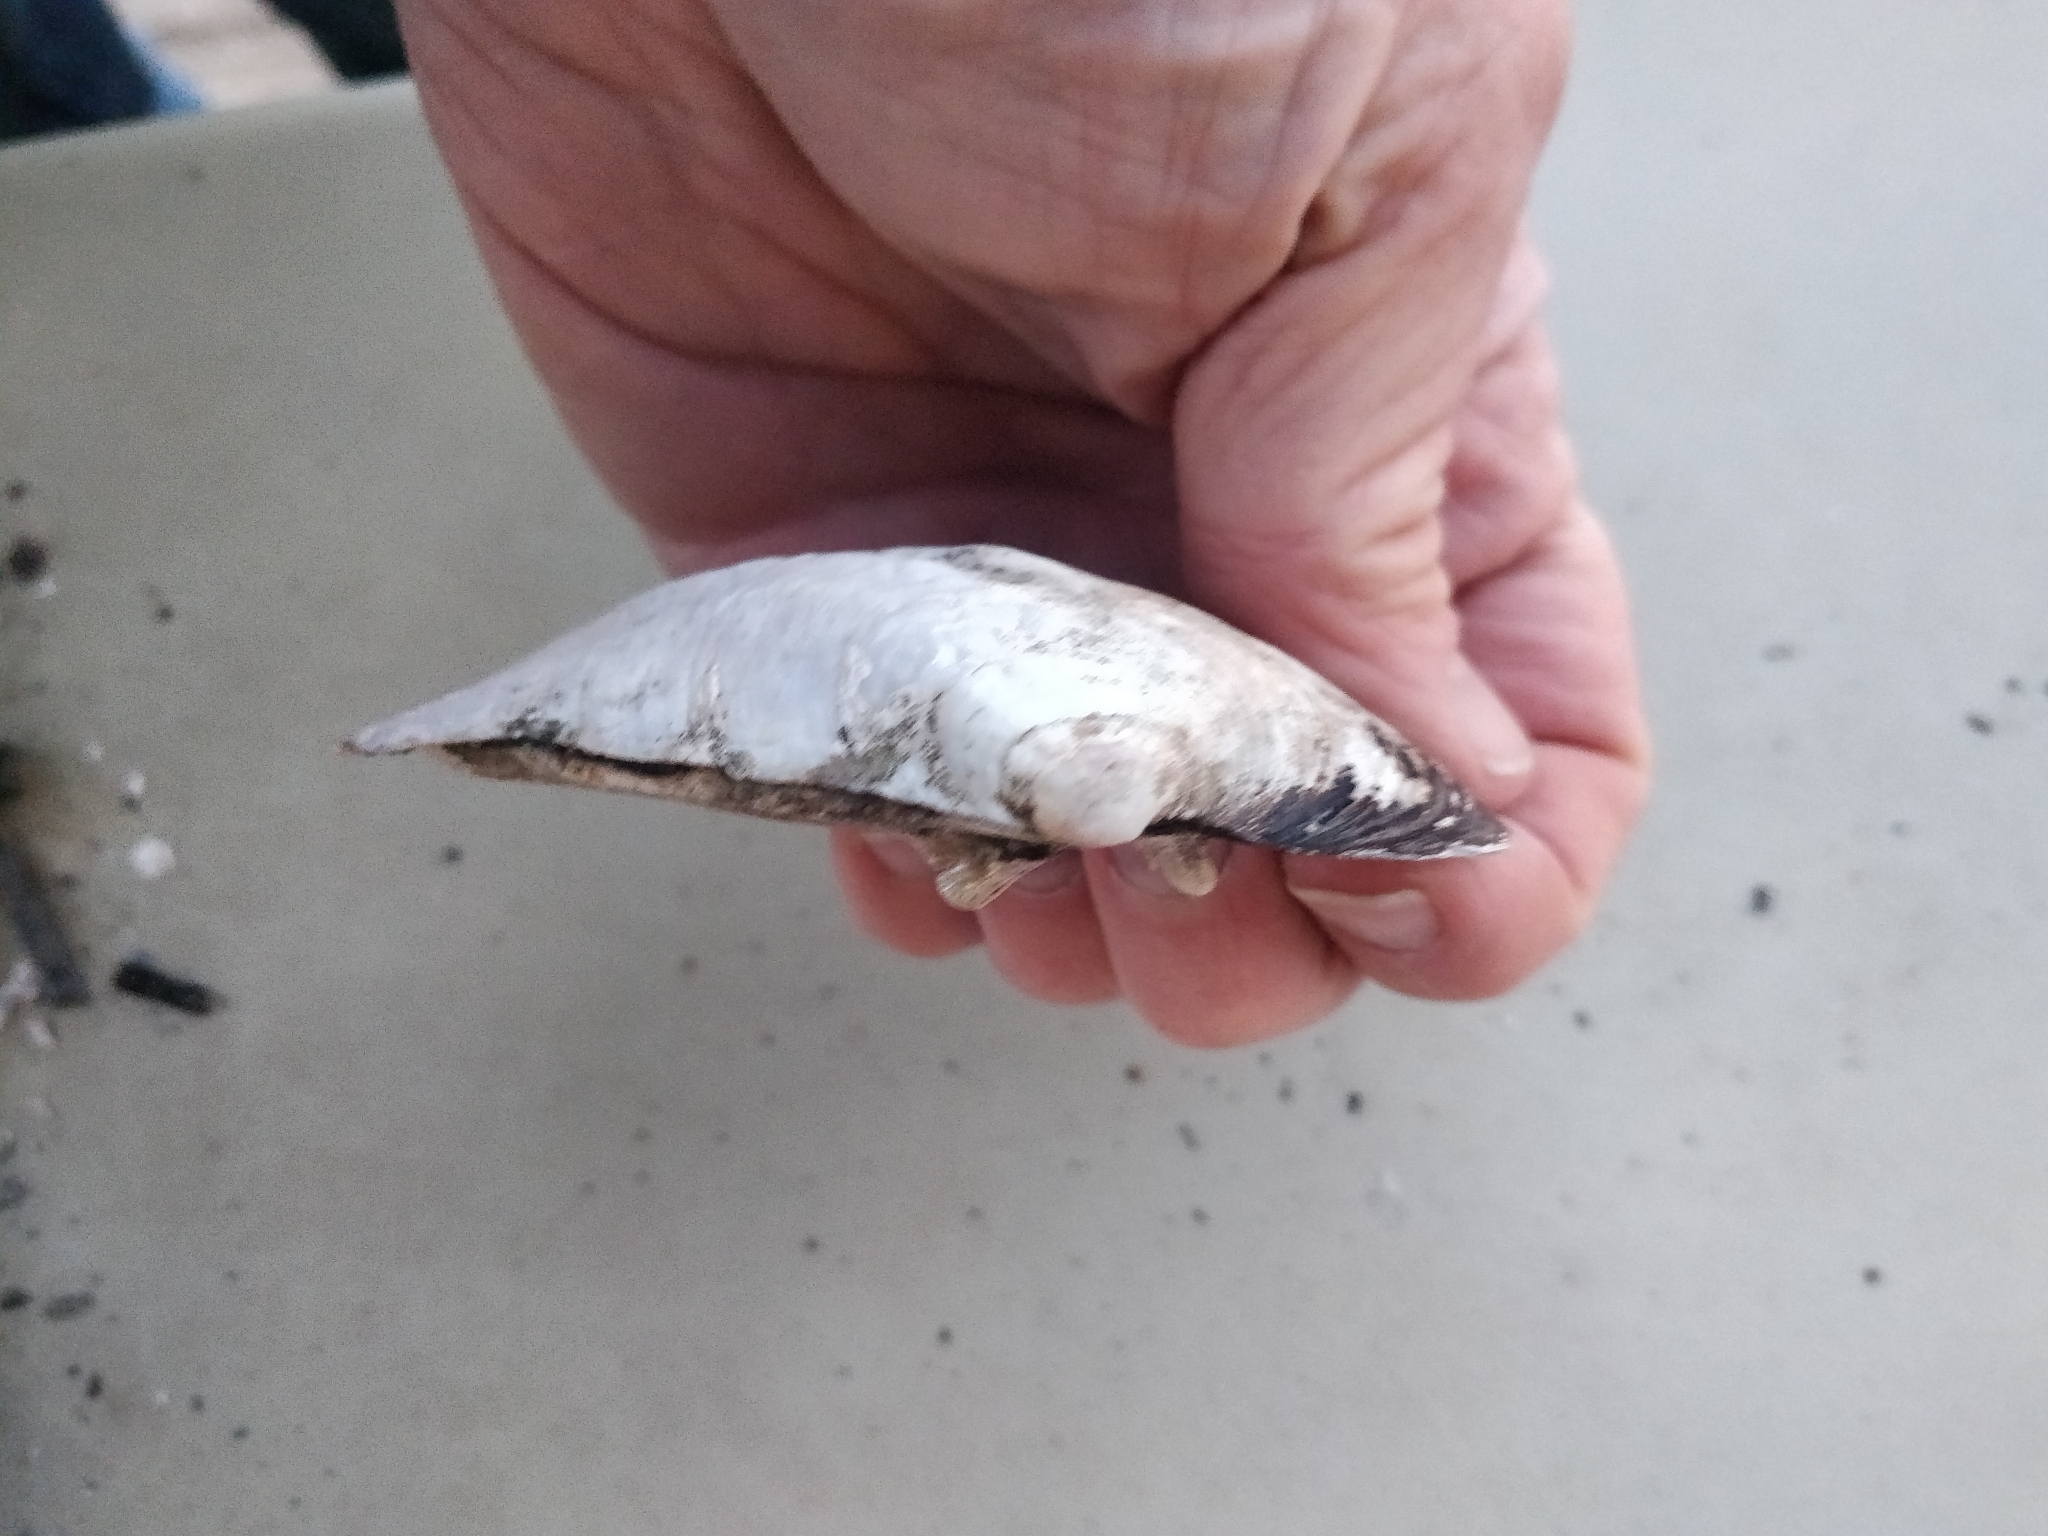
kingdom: Animalia
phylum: Mollusca
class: Bivalvia
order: Unionida
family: Unionidae
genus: Amblema
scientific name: Amblema plicata
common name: Threeridge
